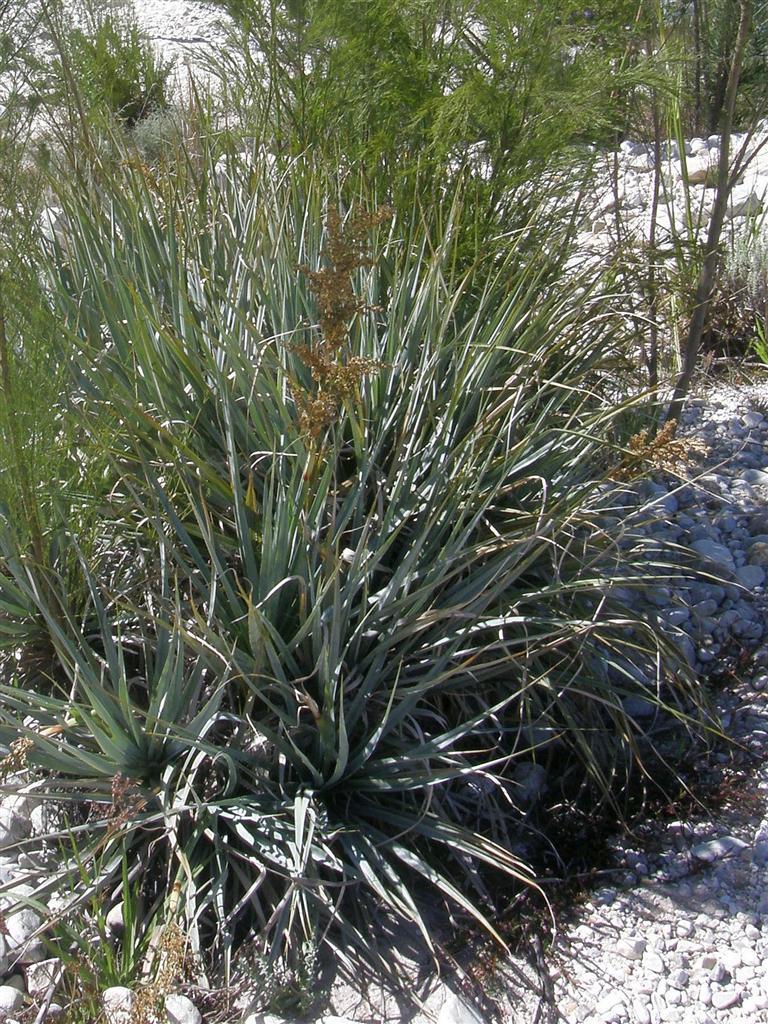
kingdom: Plantae
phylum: Tracheophyta
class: Liliopsida
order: Poales
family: Thurniaceae
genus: Prionium
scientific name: Prionium serratum
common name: Palmiet
